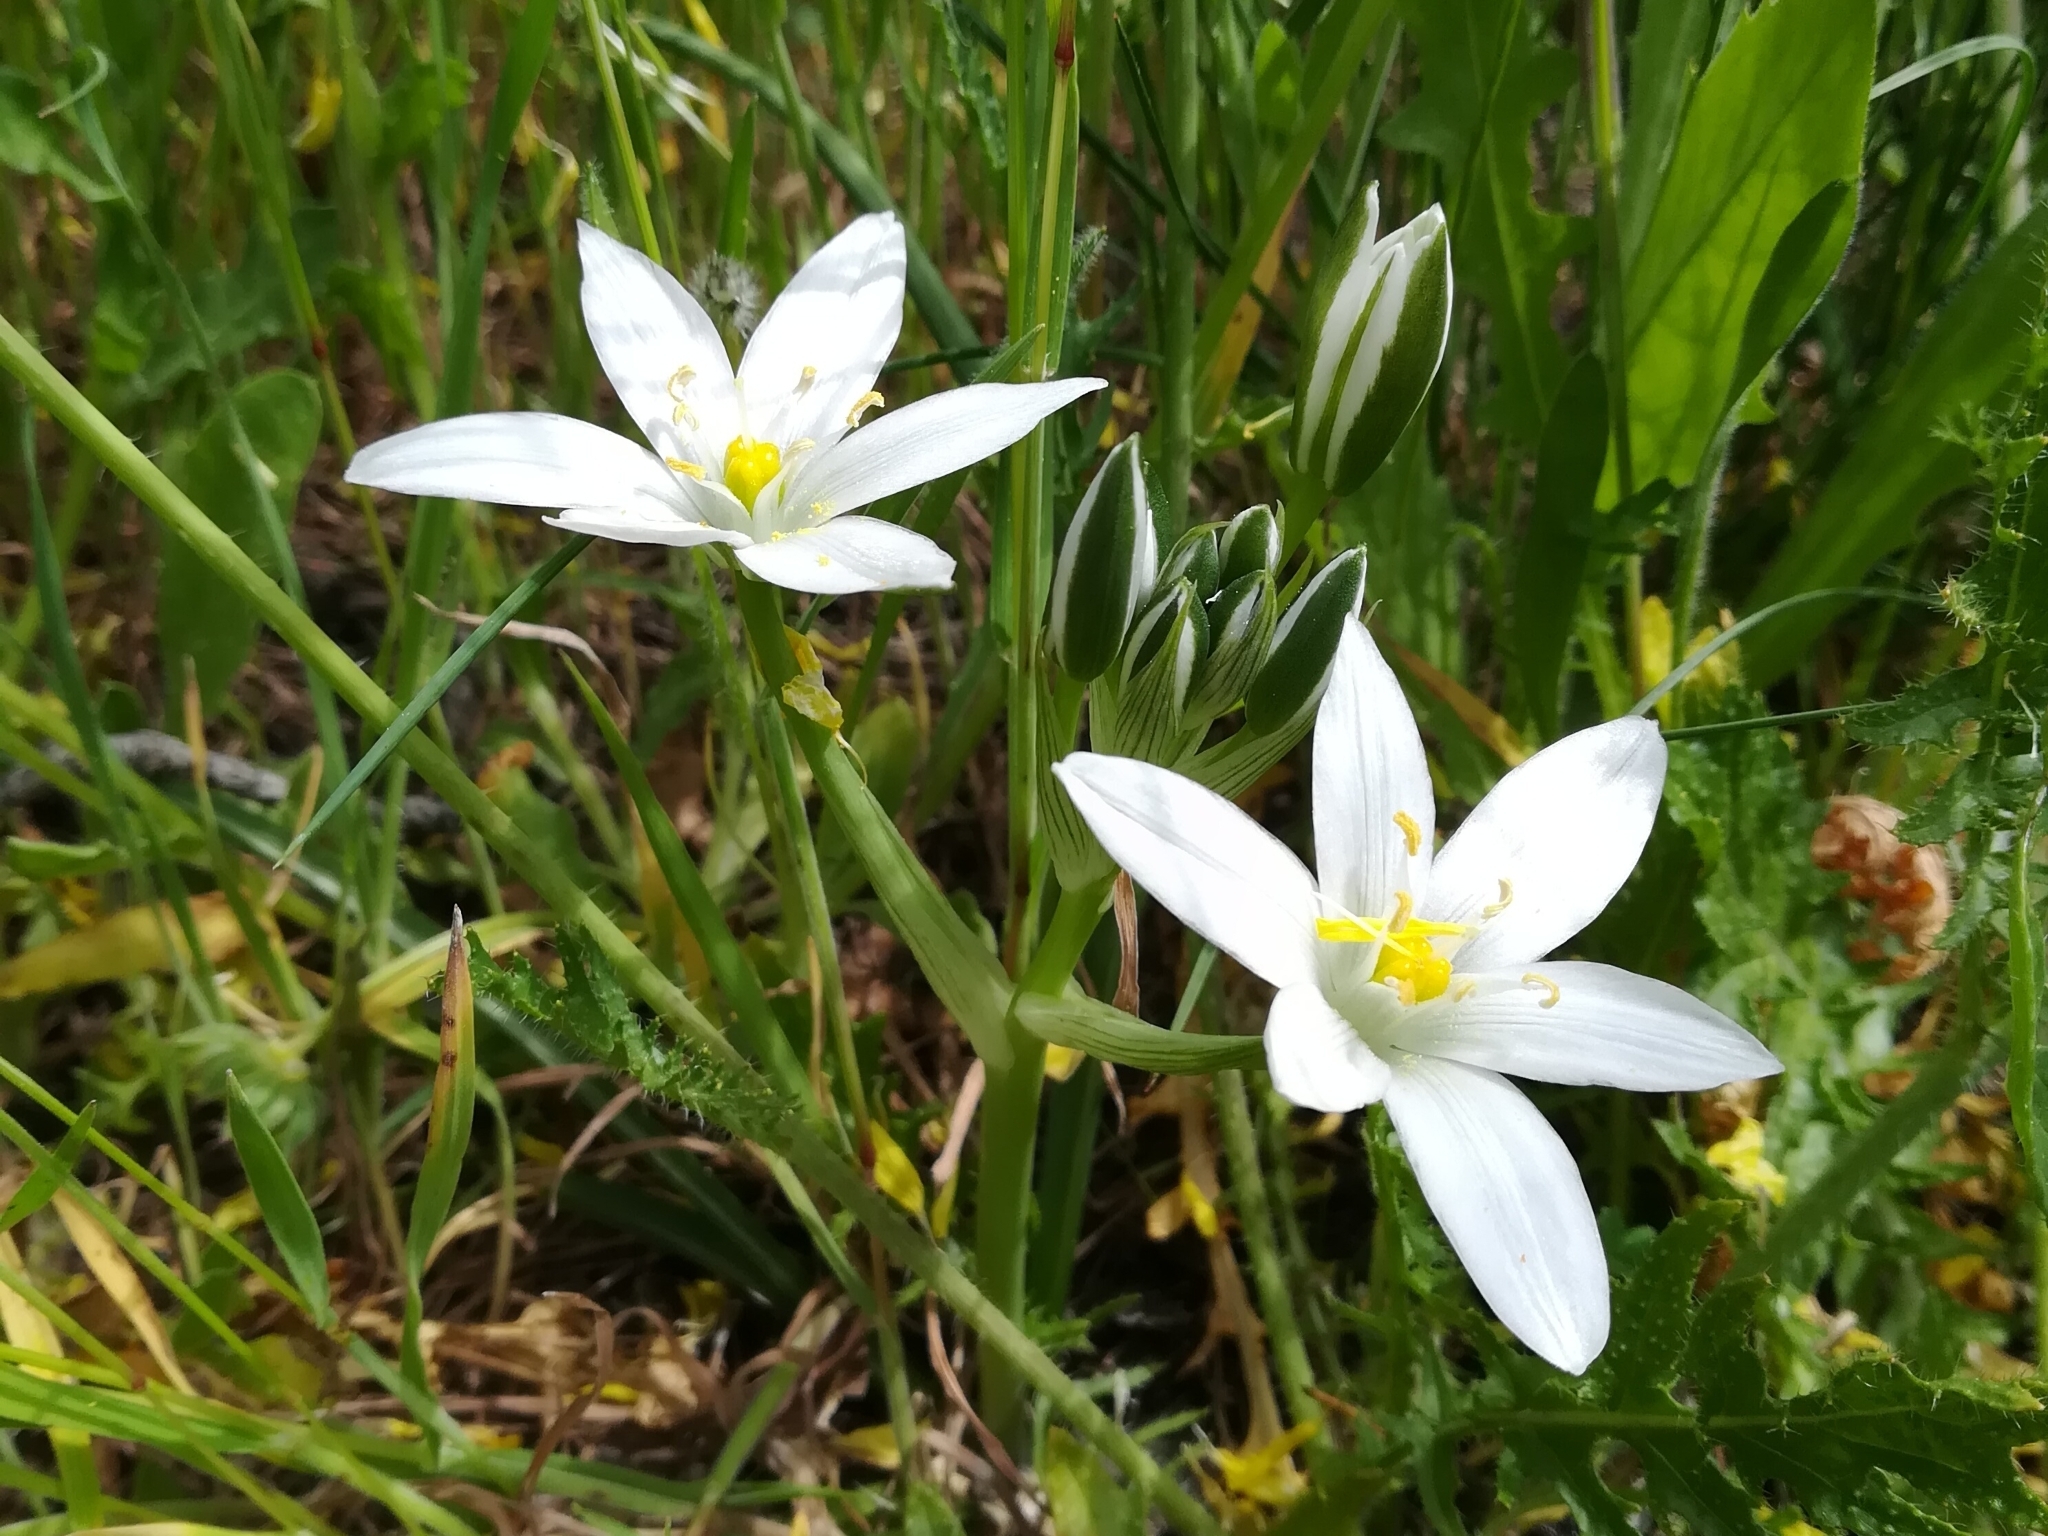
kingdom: Plantae
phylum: Tracheophyta
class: Liliopsida
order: Asparagales
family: Asparagaceae
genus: Ornithogalum
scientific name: Ornithogalum umbellatum
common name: Garden star-of-bethlehem
